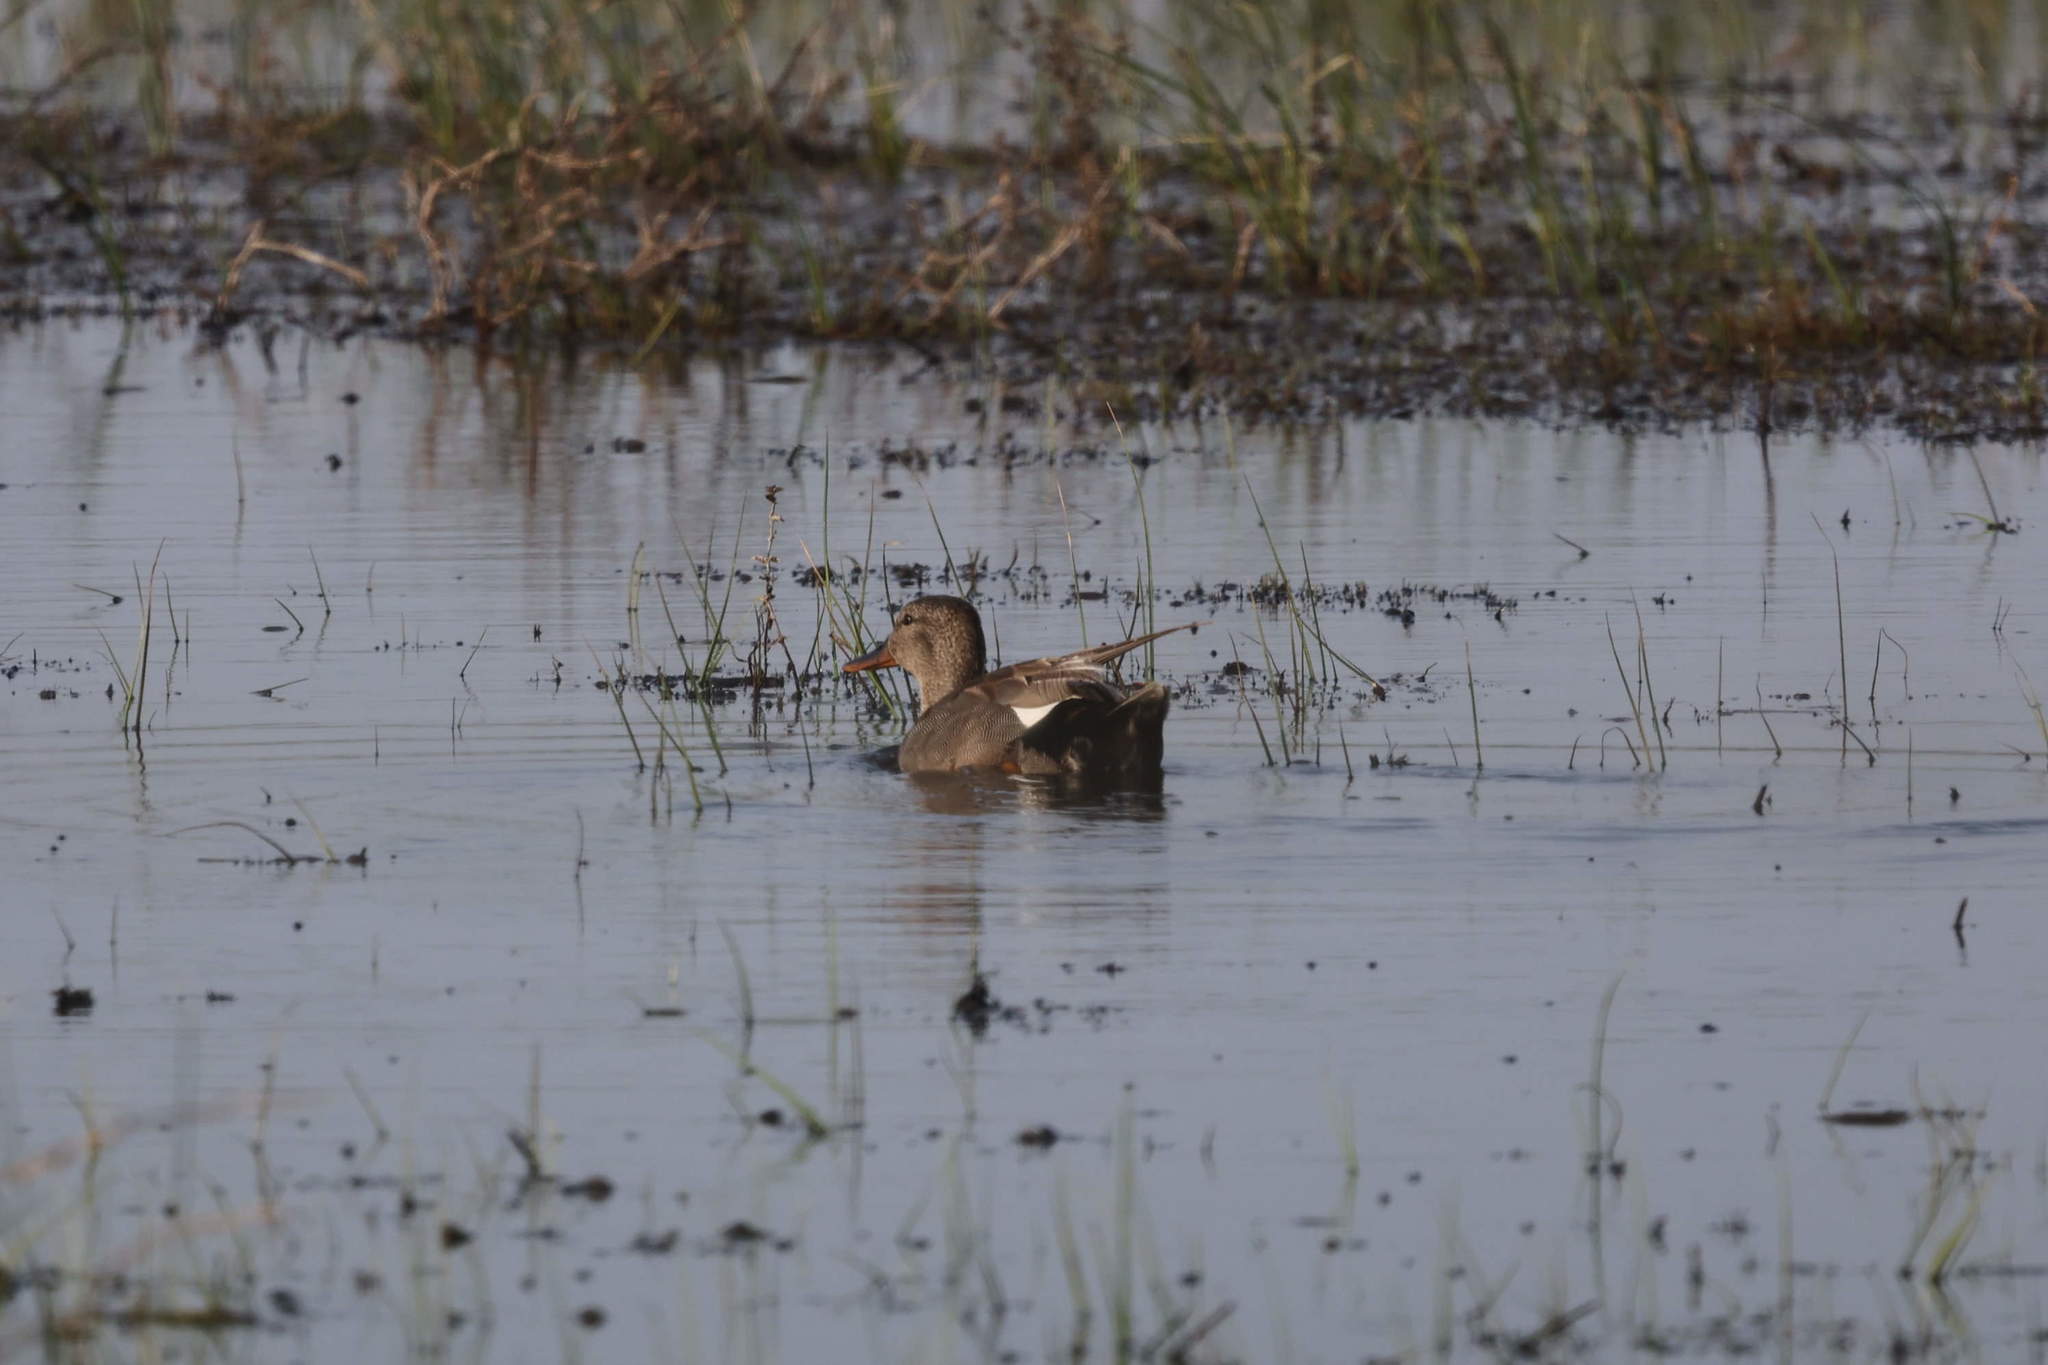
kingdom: Animalia
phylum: Chordata
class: Aves
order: Anseriformes
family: Anatidae
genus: Mareca
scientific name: Mareca strepera
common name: Gadwall
